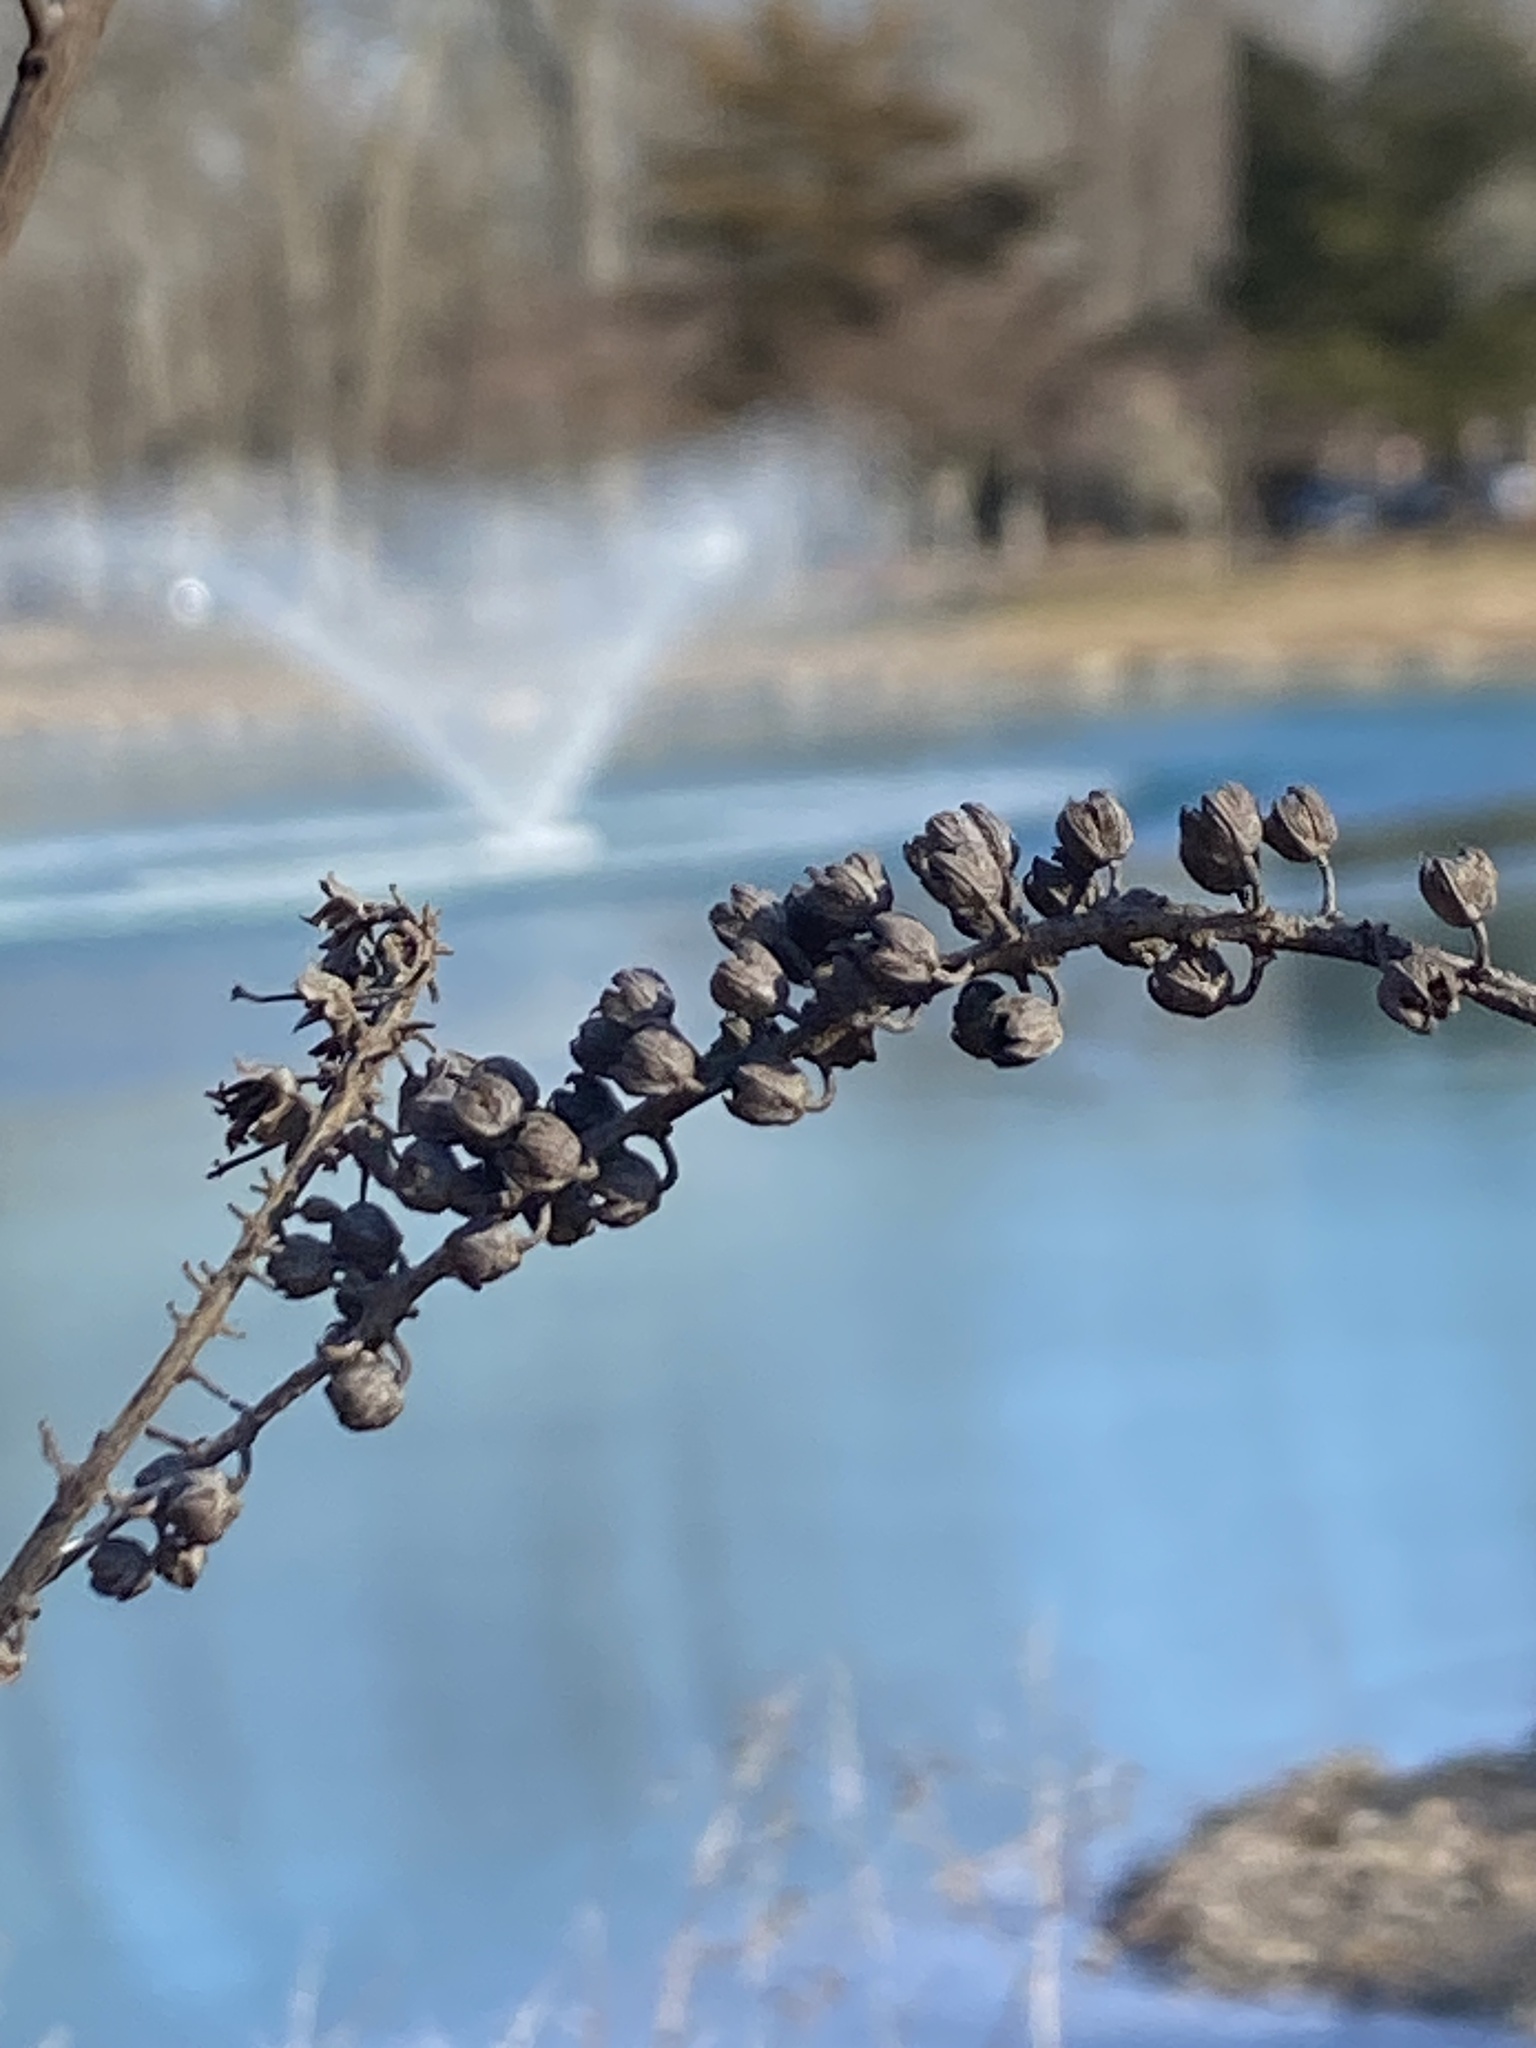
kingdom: Plantae
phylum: Tracheophyta
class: Magnoliopsida
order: Ericales
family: Clethraceae
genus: Clethra
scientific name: Clethra alnifolia
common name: Sweet pepperbush
